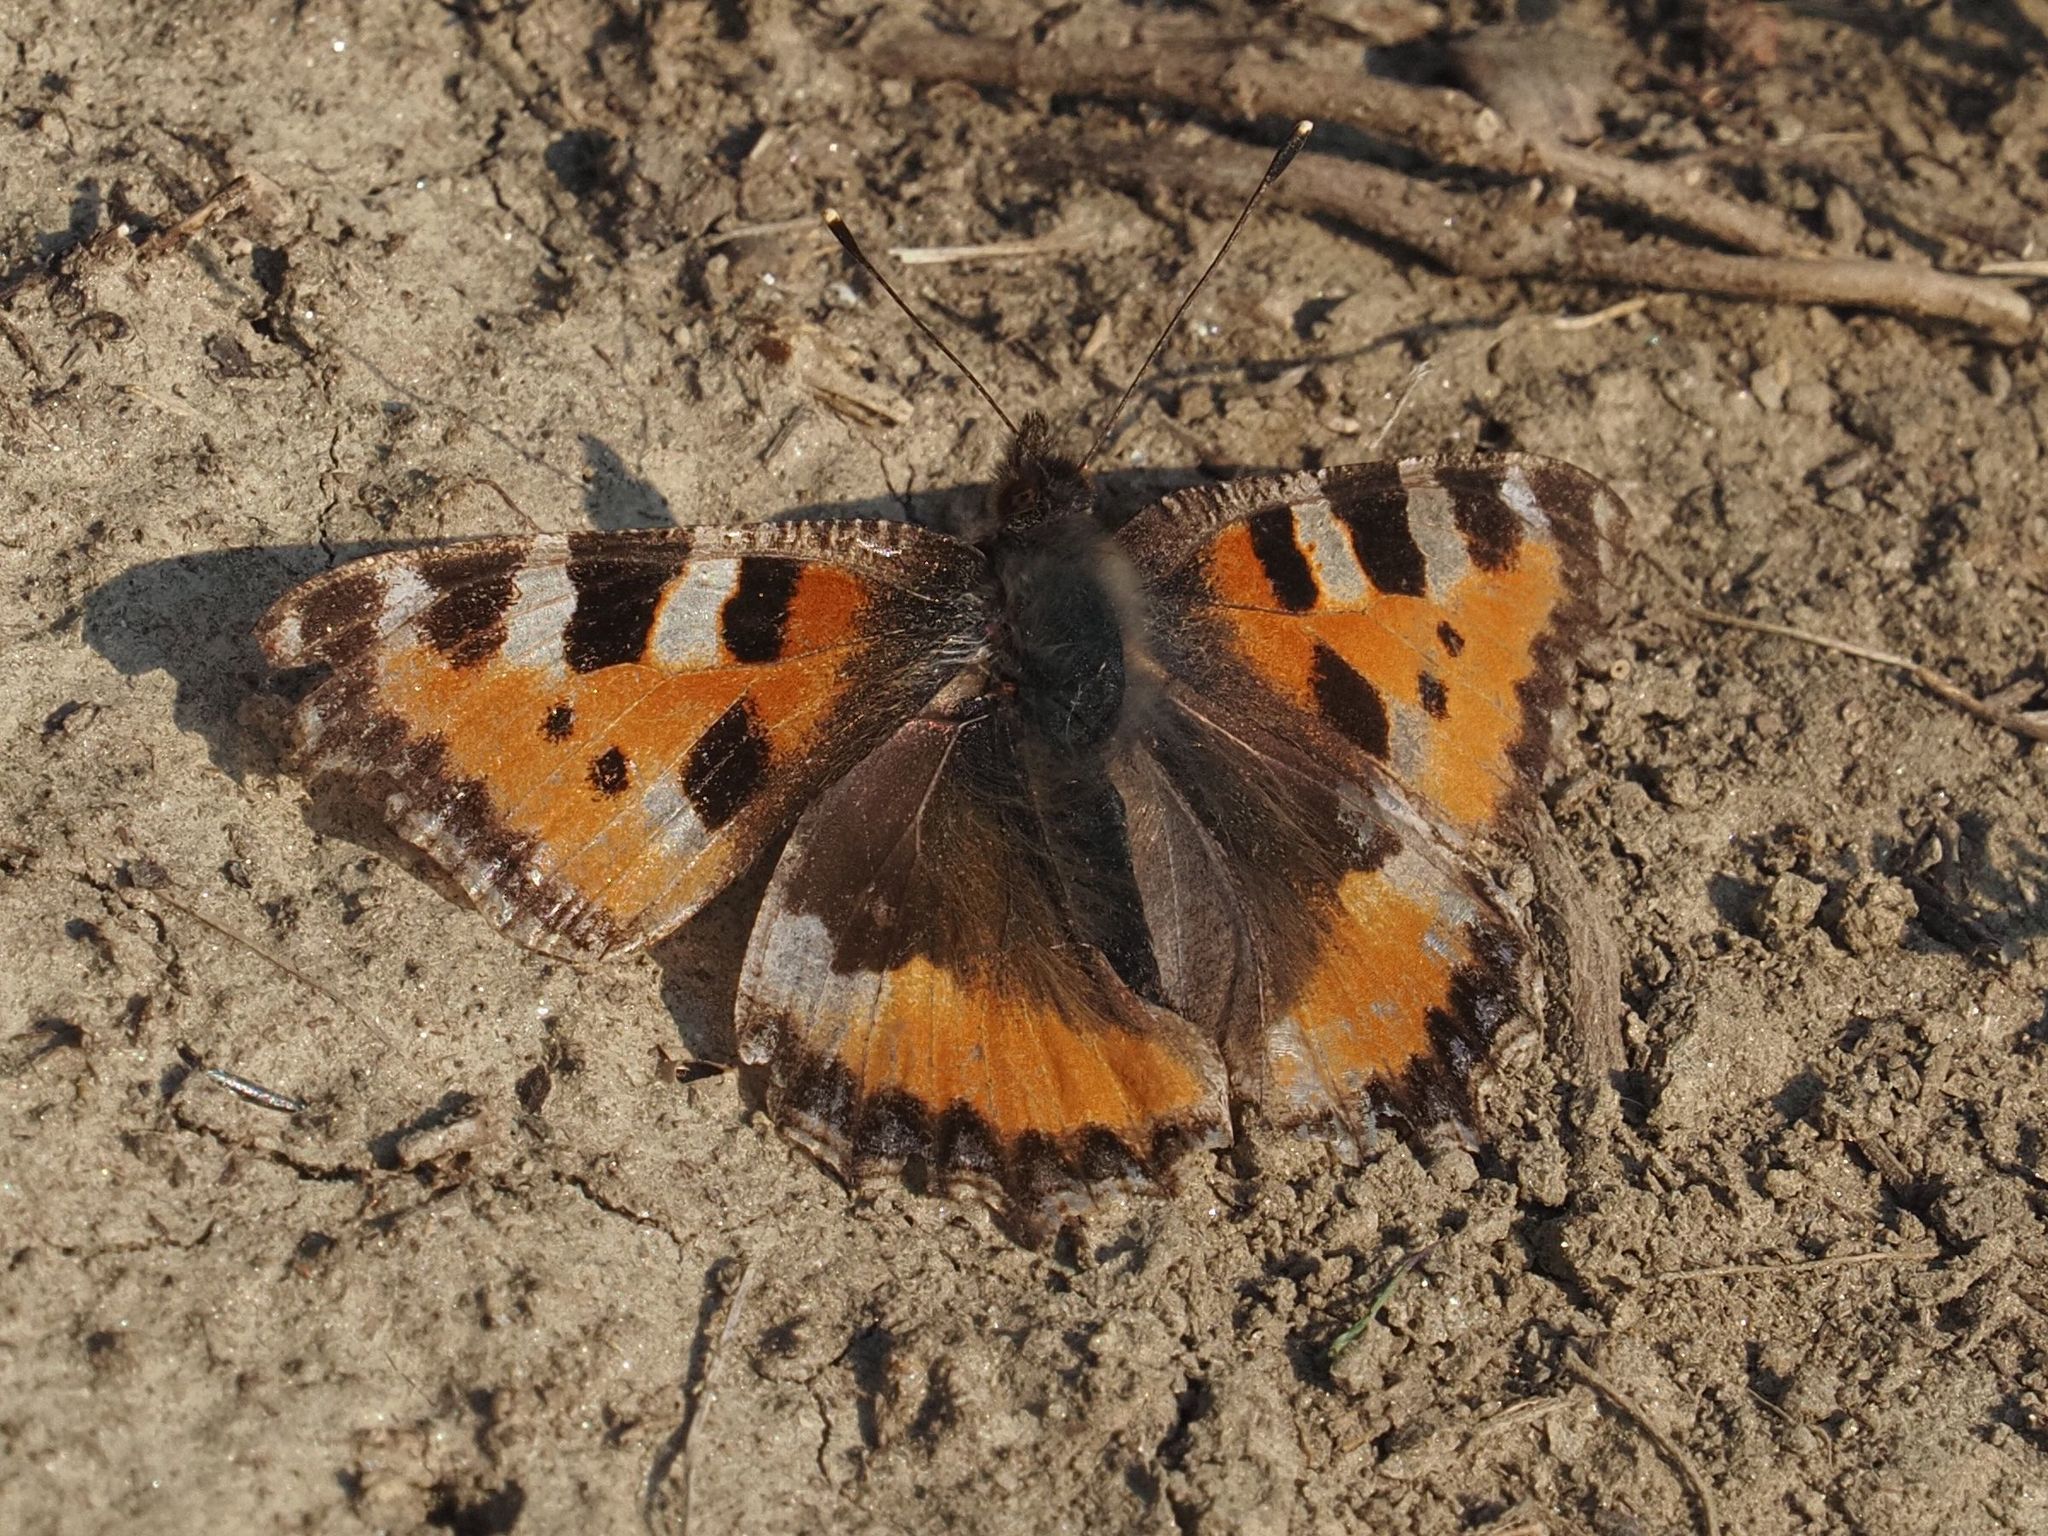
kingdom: Animalia
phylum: Arthropoda
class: Insecta
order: Lepidoptera
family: Nymphalidae
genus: Aglais
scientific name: Aglais urticae
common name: Small tortoiseshell
